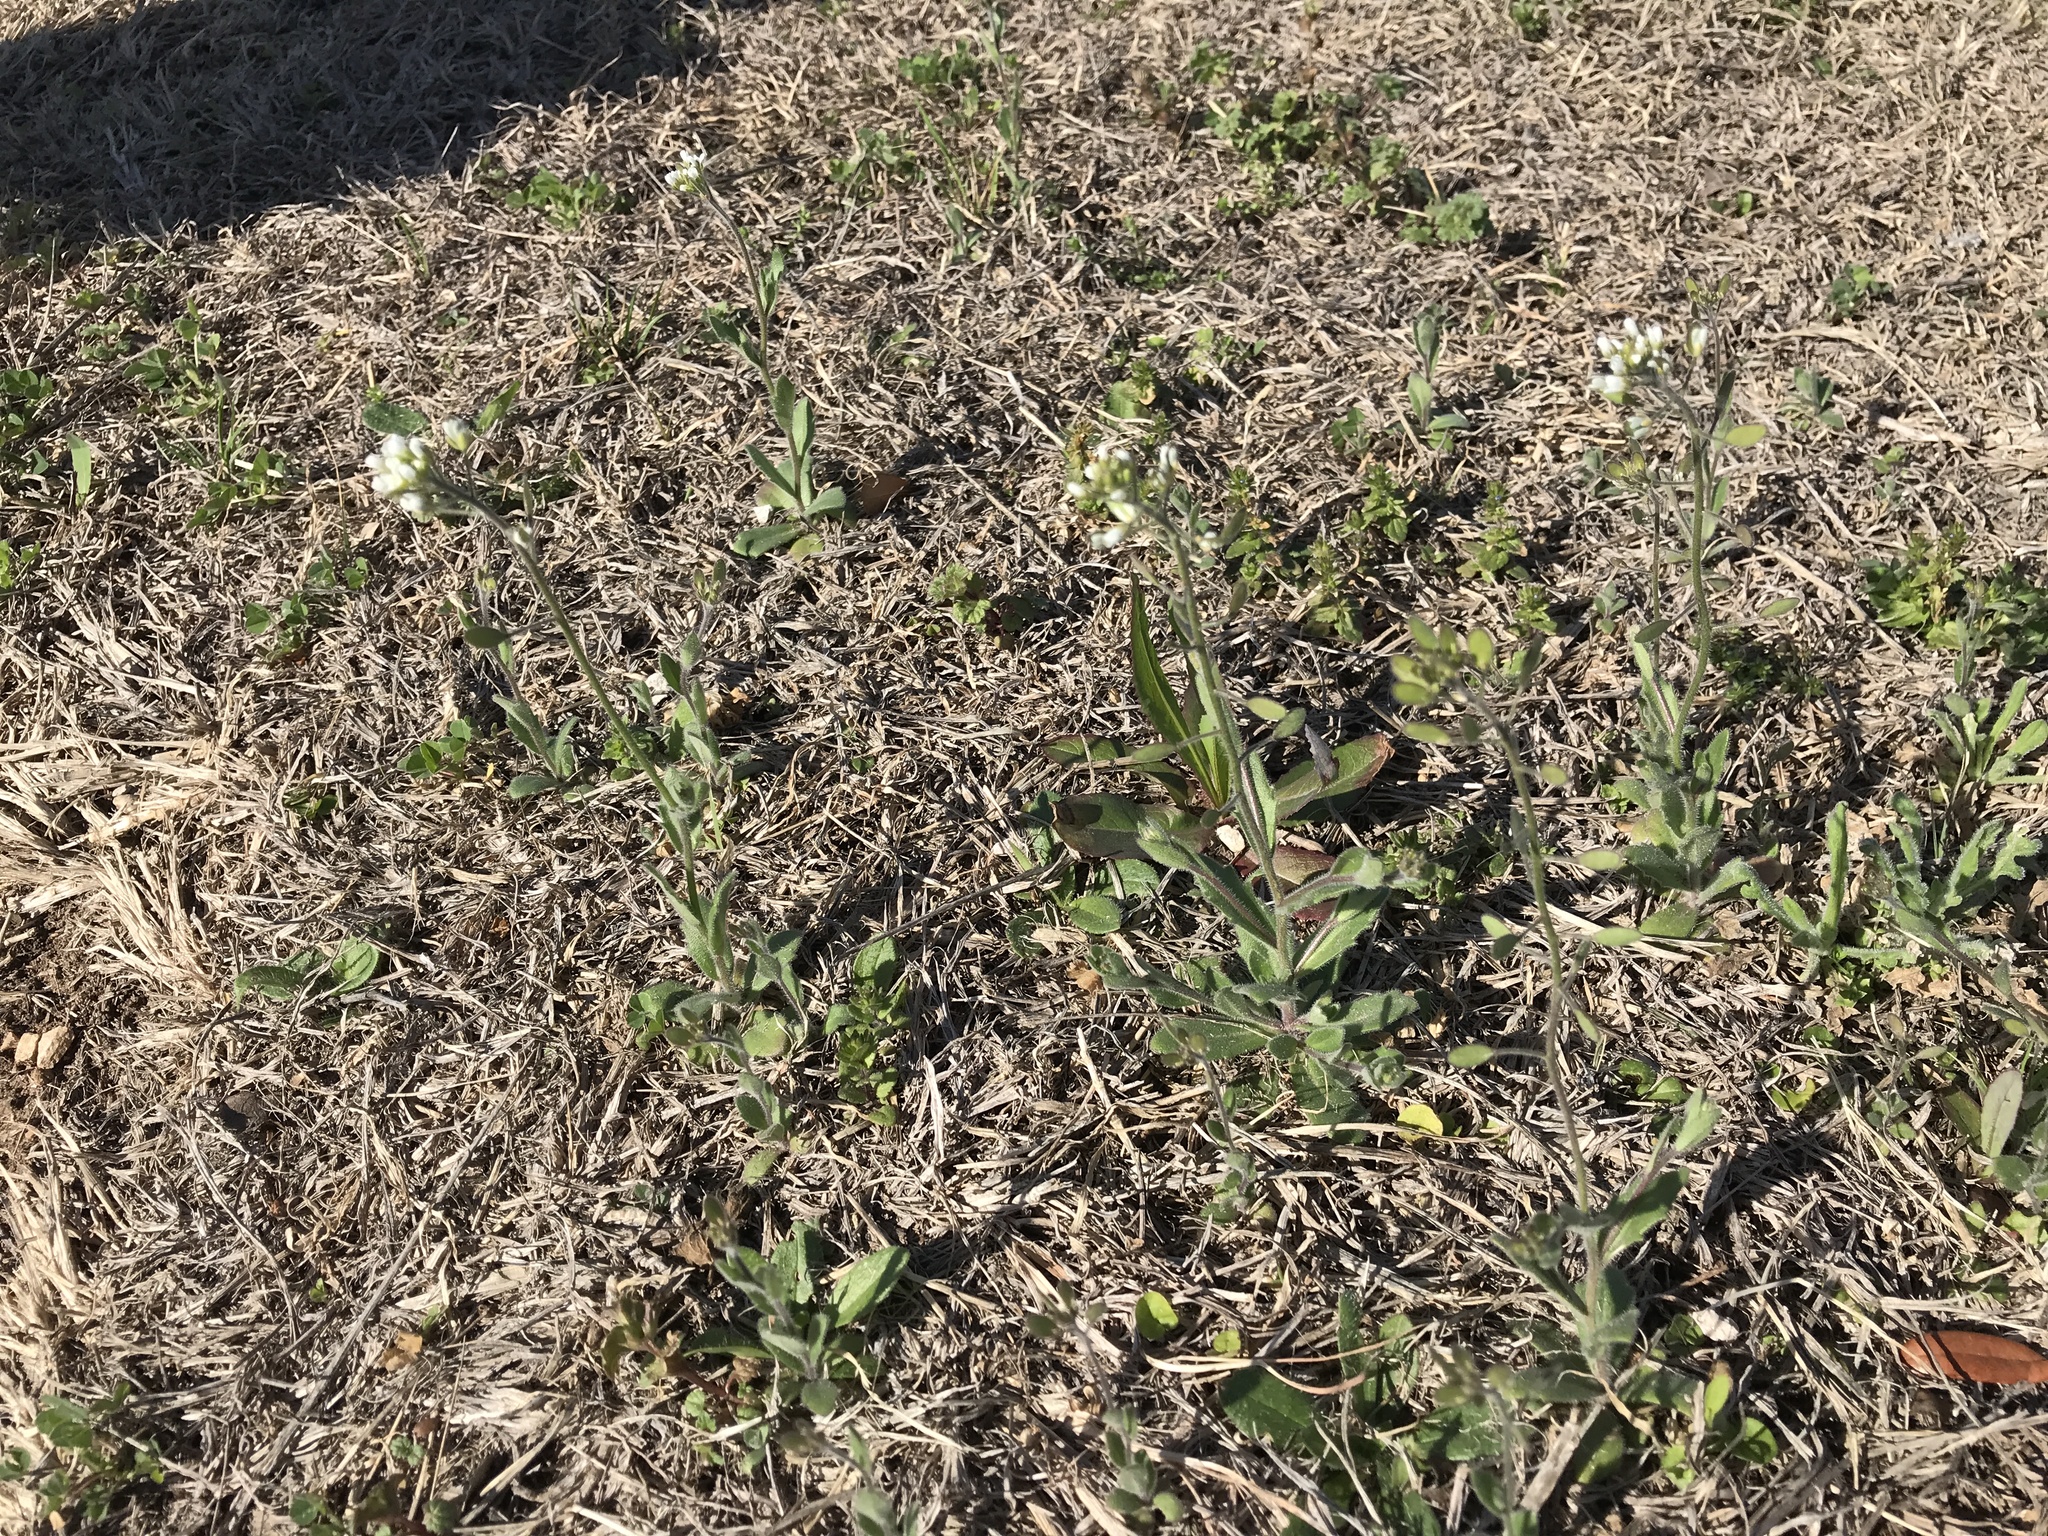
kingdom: Plantae
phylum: Tracheophyta
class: Magnoliopsida
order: Brassicales
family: Brassicaceae
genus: Tomostima
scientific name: Tomostima platycarpa
